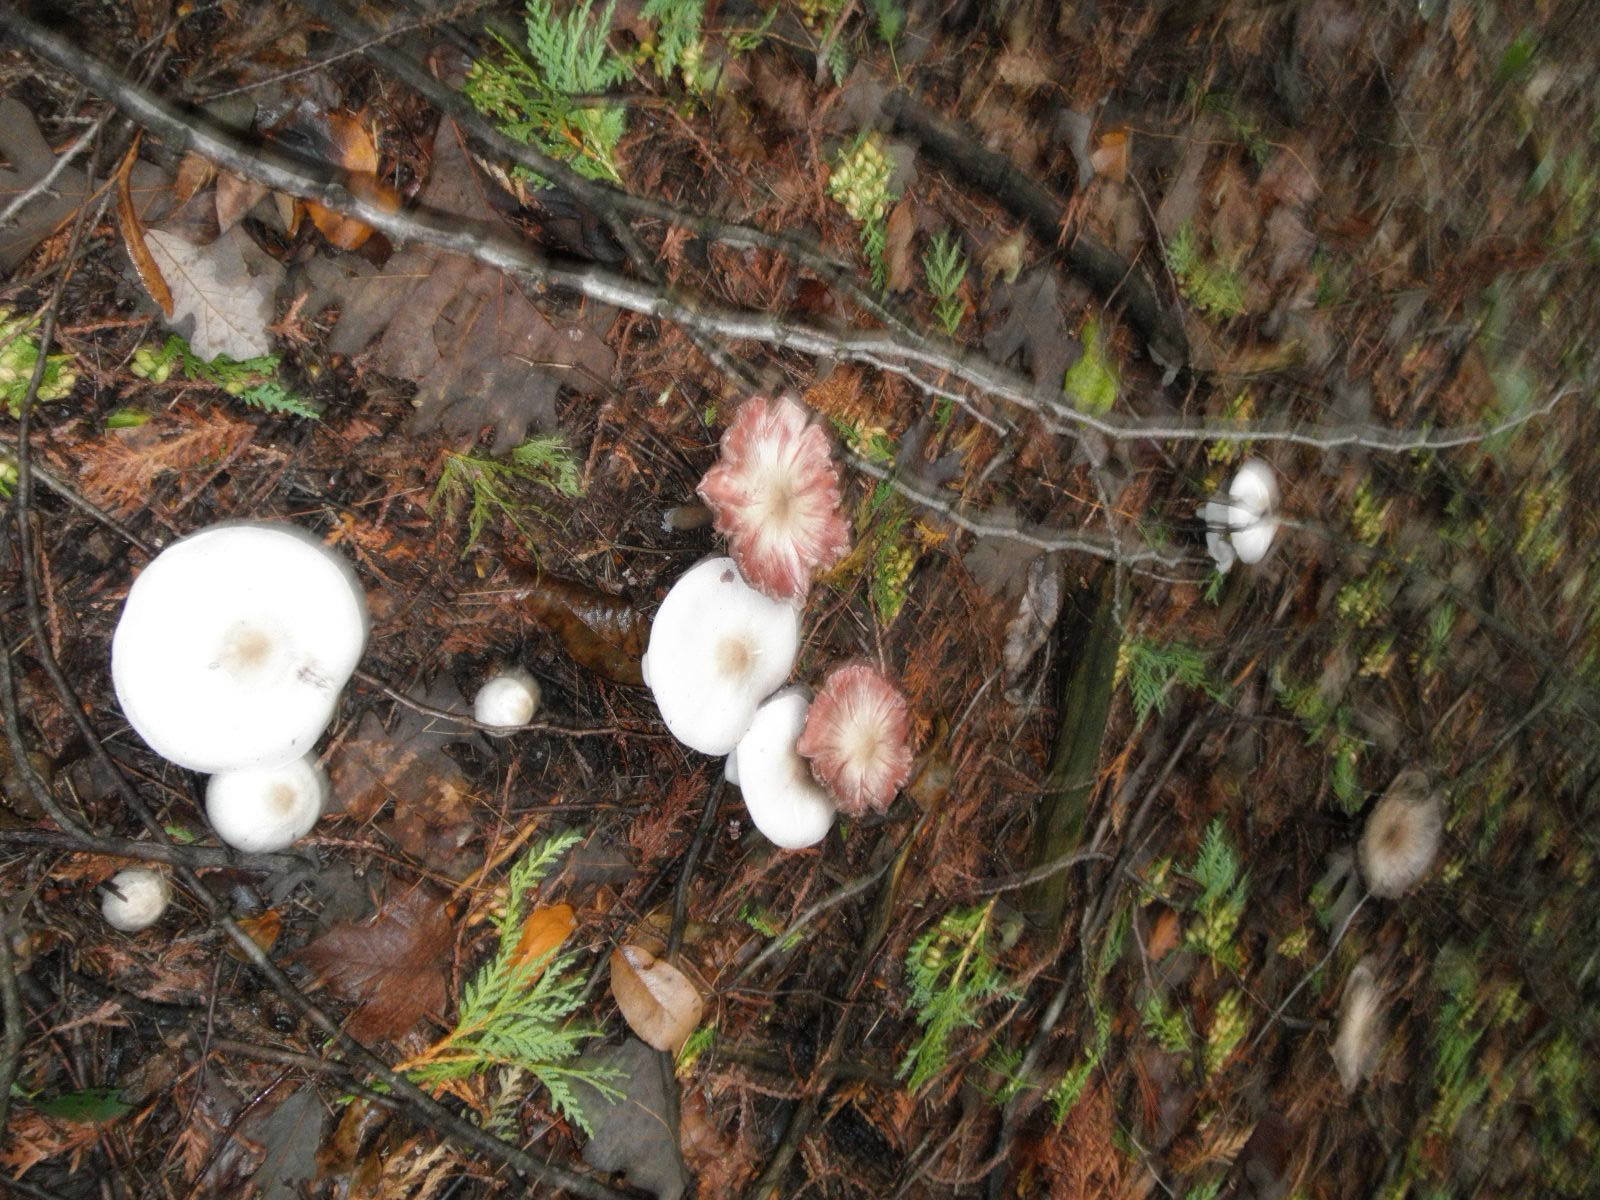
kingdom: Fungi
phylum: Basidiomycota
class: Agaricomycetes
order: Agaricales
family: Agaricaceae
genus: Agaricus
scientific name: Agaricus placomyces
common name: Inky mushroom
